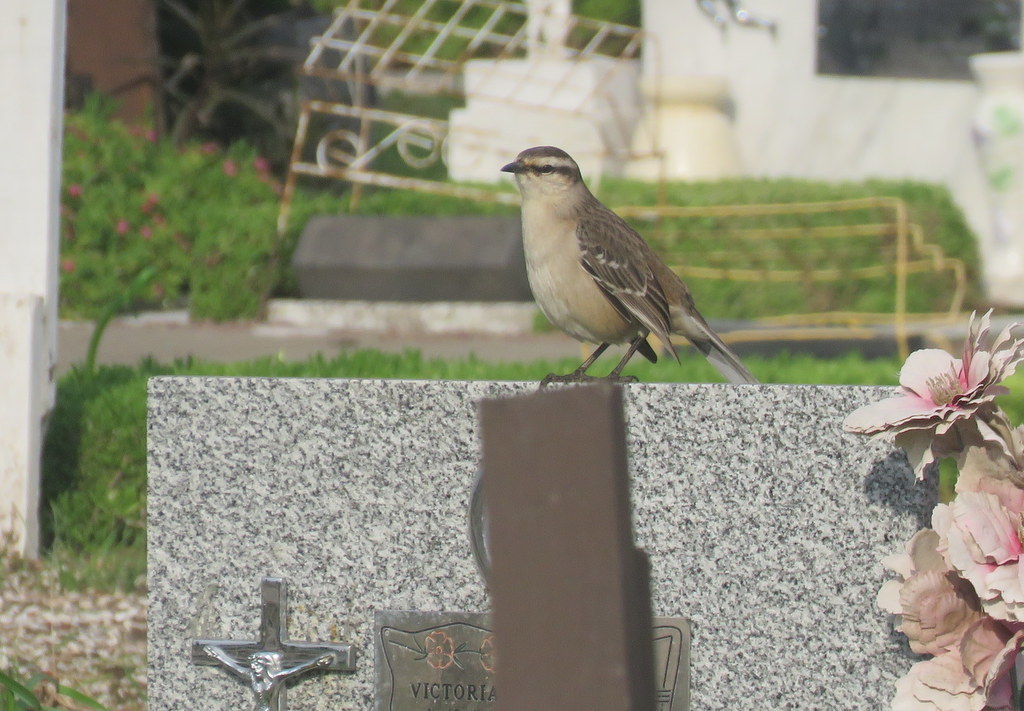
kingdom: Animalia
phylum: Chordata
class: Aves
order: Passeriformes
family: Mimidae
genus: Mimus
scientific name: Mimus saturninus
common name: Chalk-browed mockingbird
